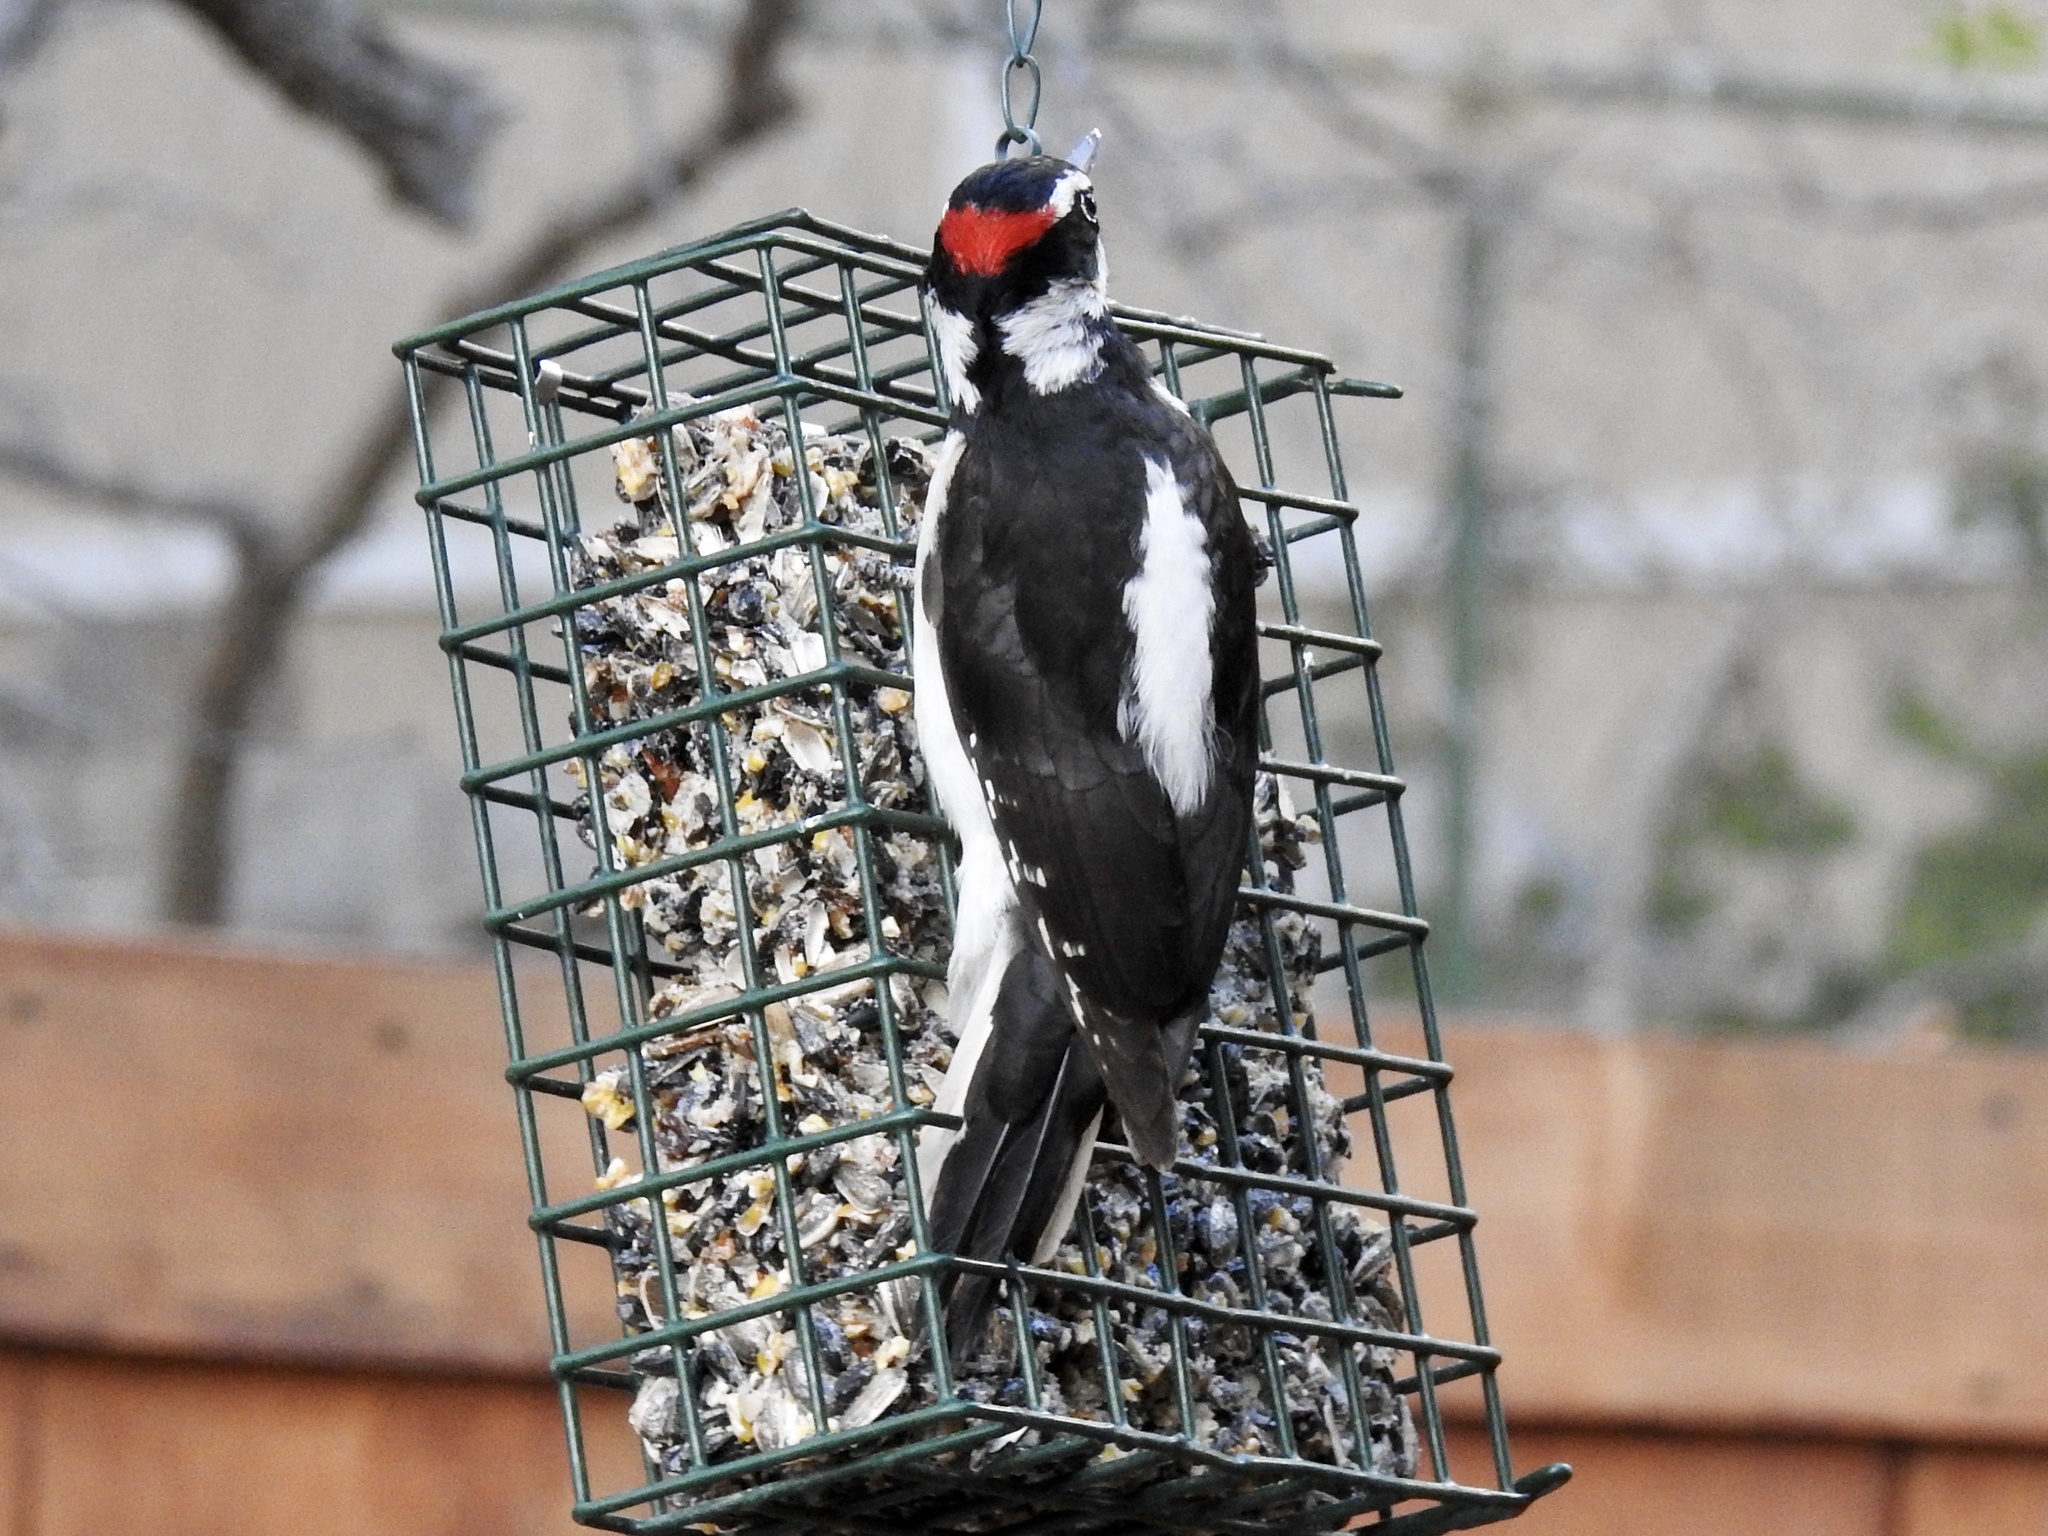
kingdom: Animalia
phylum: Chordata
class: Aves
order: Piciformes
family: Picidae
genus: Leuconotopicus
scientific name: Leuconotopicus villosus
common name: Hairy woodpecker
